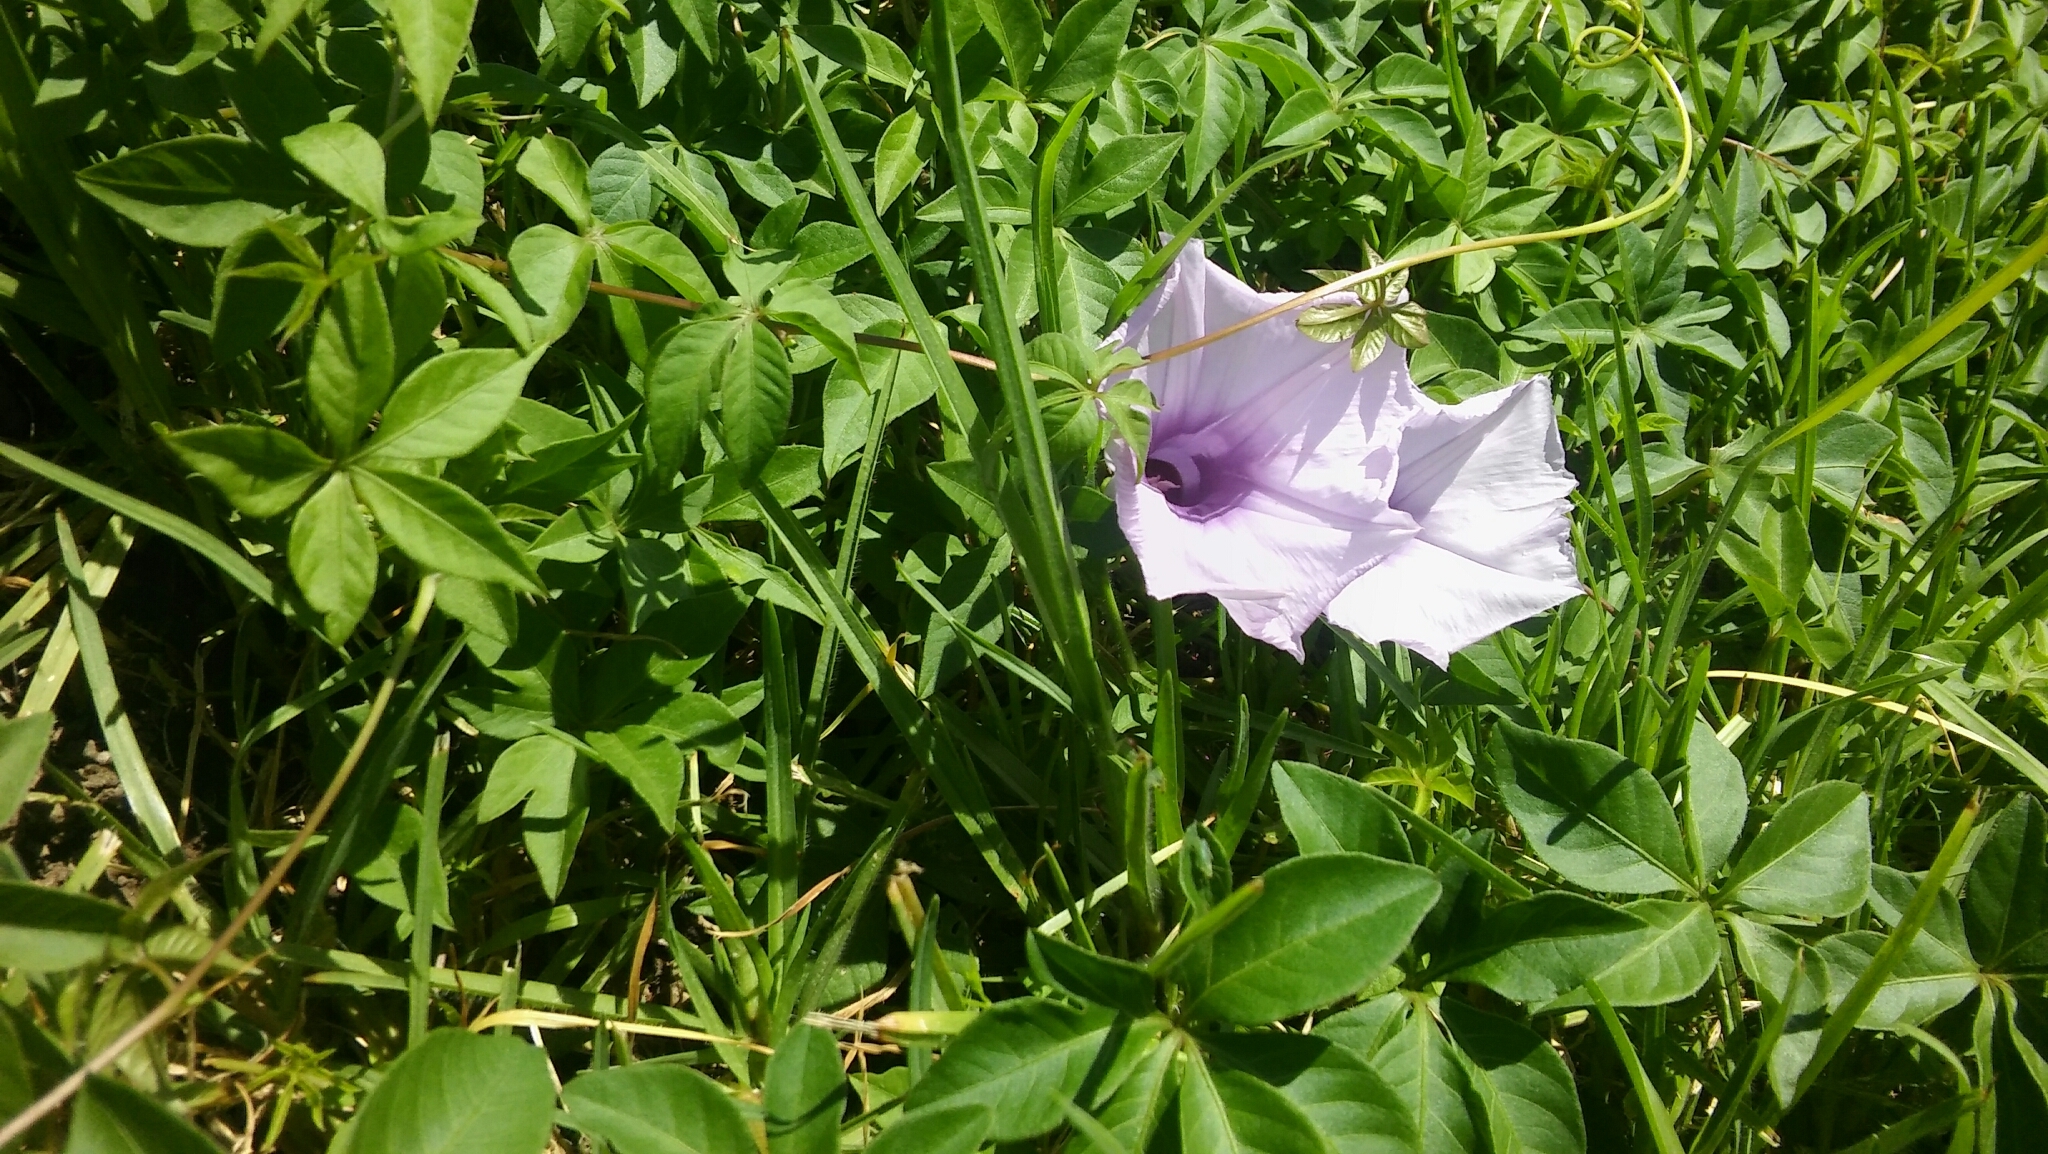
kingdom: Plantae
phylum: Tracheophyta
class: Magnoliopsida
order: Solanales
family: Convolvulaceae
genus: Ipomoea
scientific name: Ipomoea cairica
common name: Mile a minute vine
